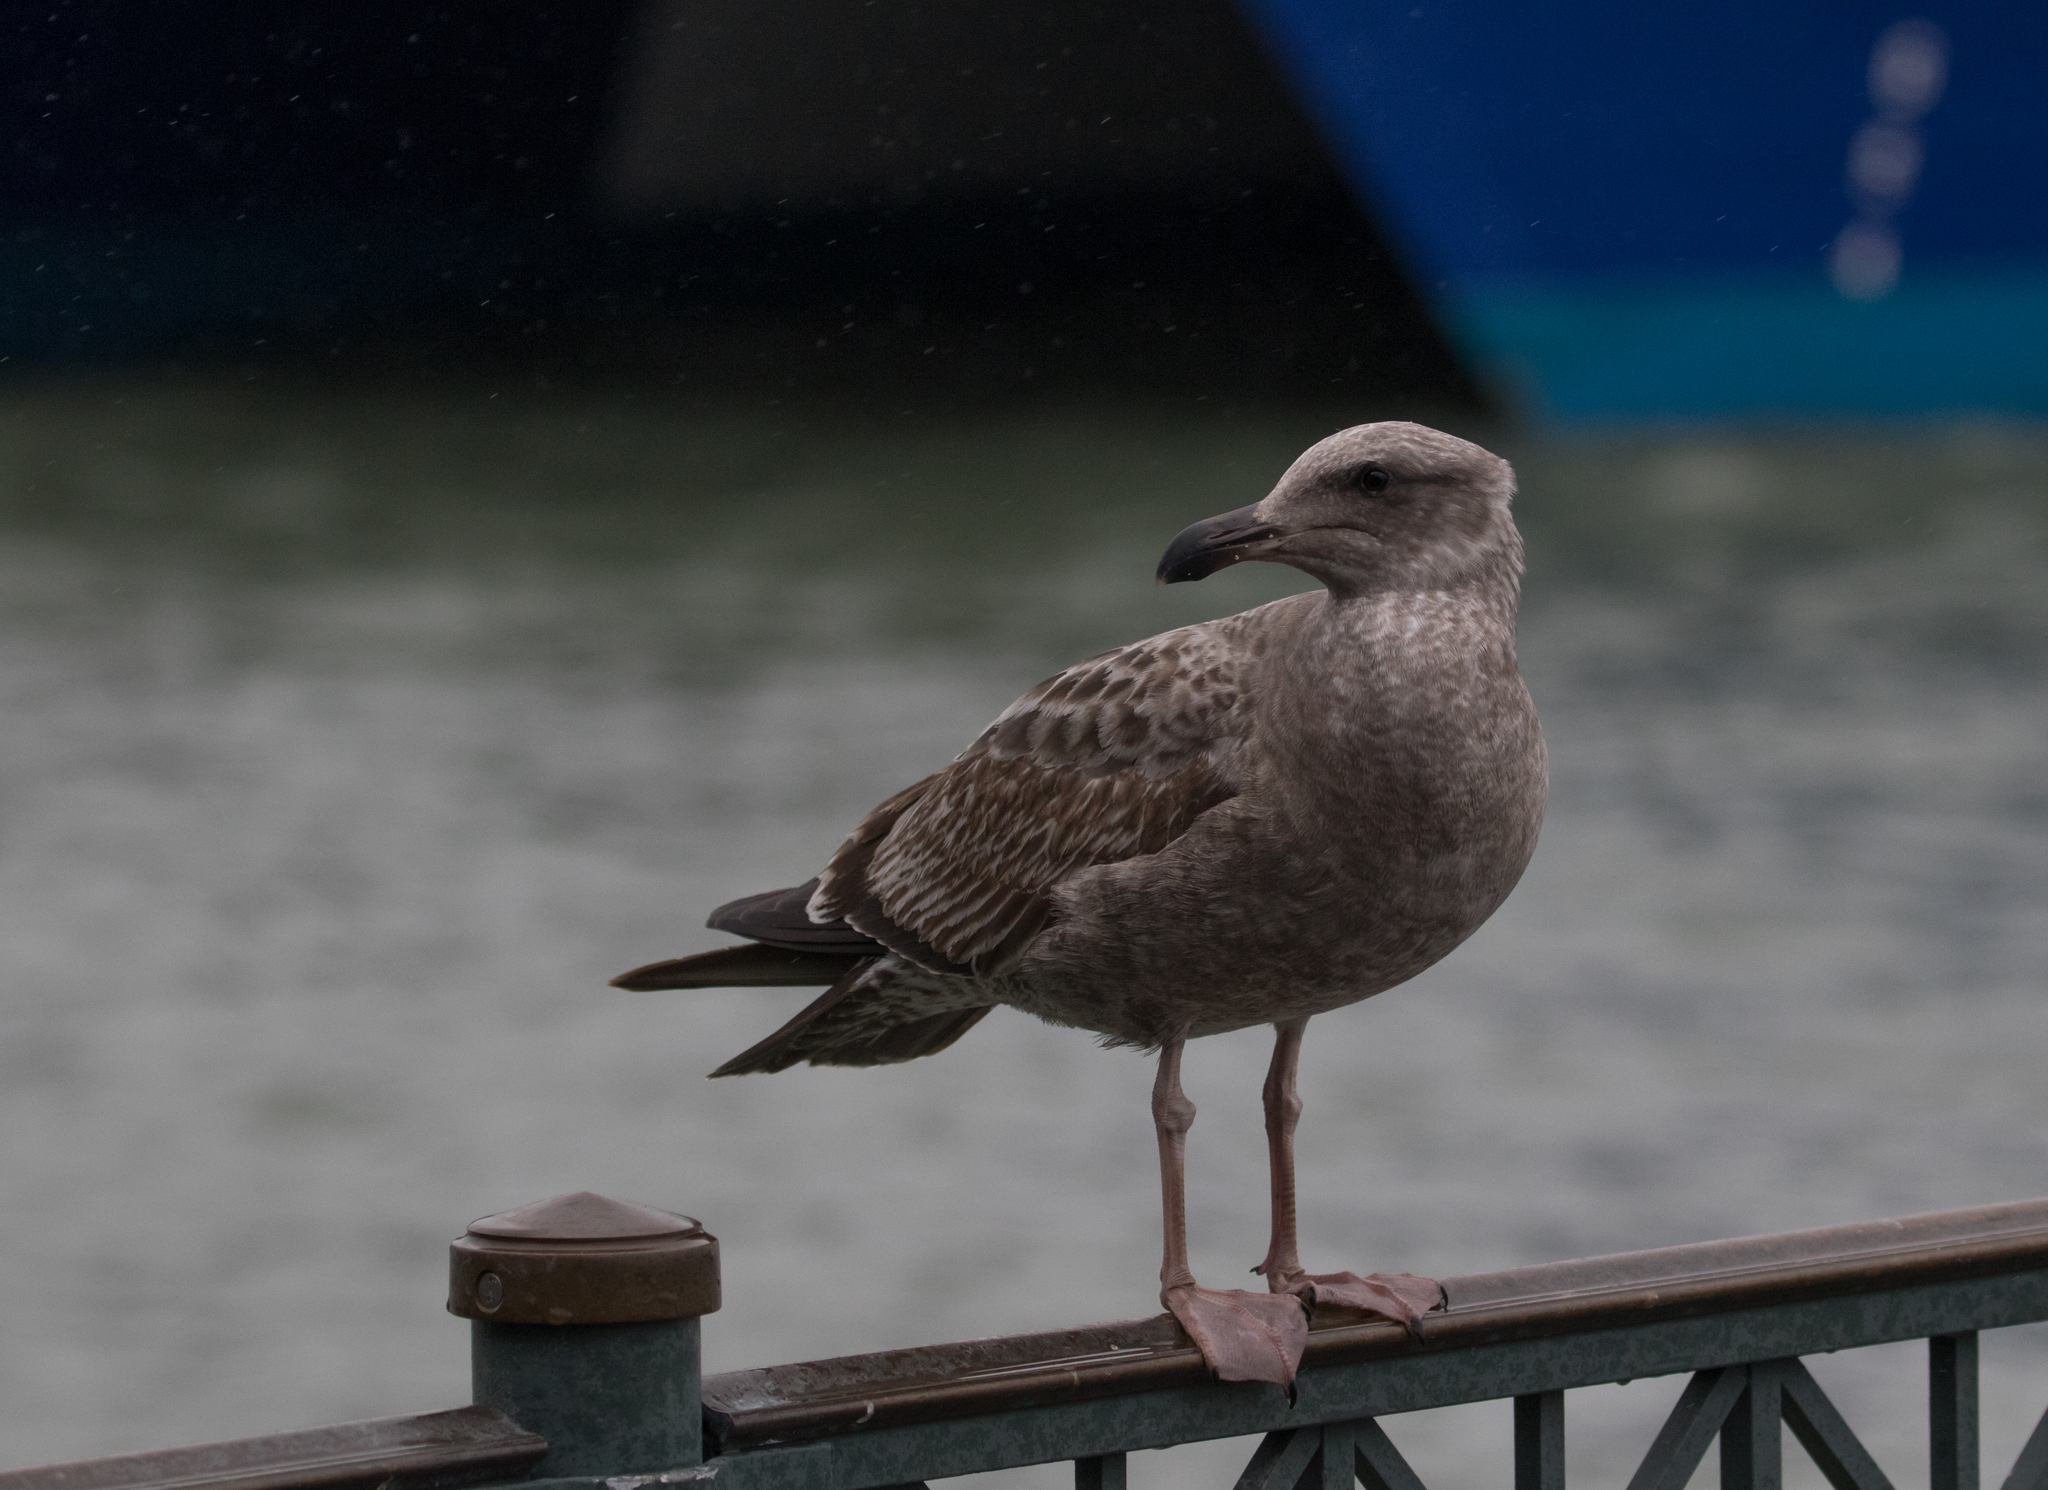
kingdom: Animalia
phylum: Chordata
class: Aves
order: Charadriiformes
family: Laridae
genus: Larus
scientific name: Larus occidentalis
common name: Western gull
